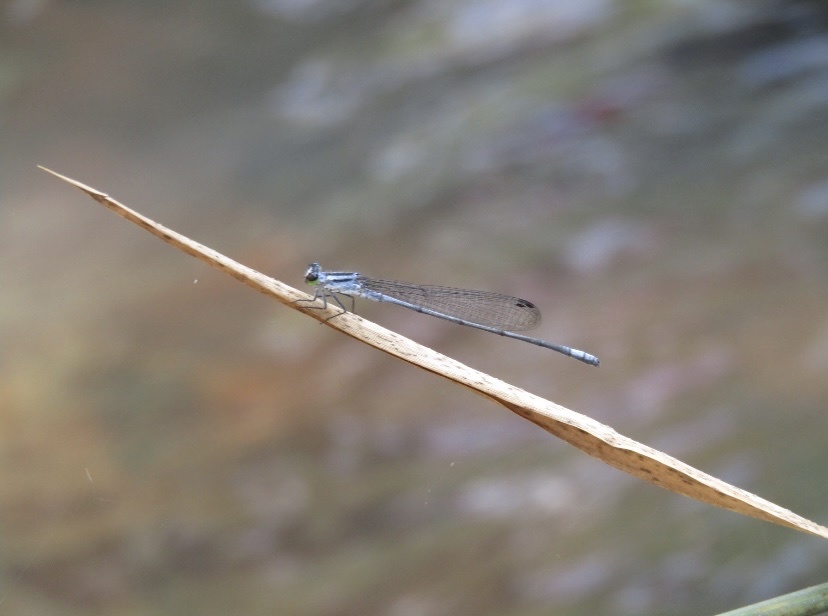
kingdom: Animalia
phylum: Arthropoda
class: Insecta
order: Odonata
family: Coenagrionidae
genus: Pseudagrion
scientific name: Pseudagrion kersteni
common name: Powder-faced sprite
